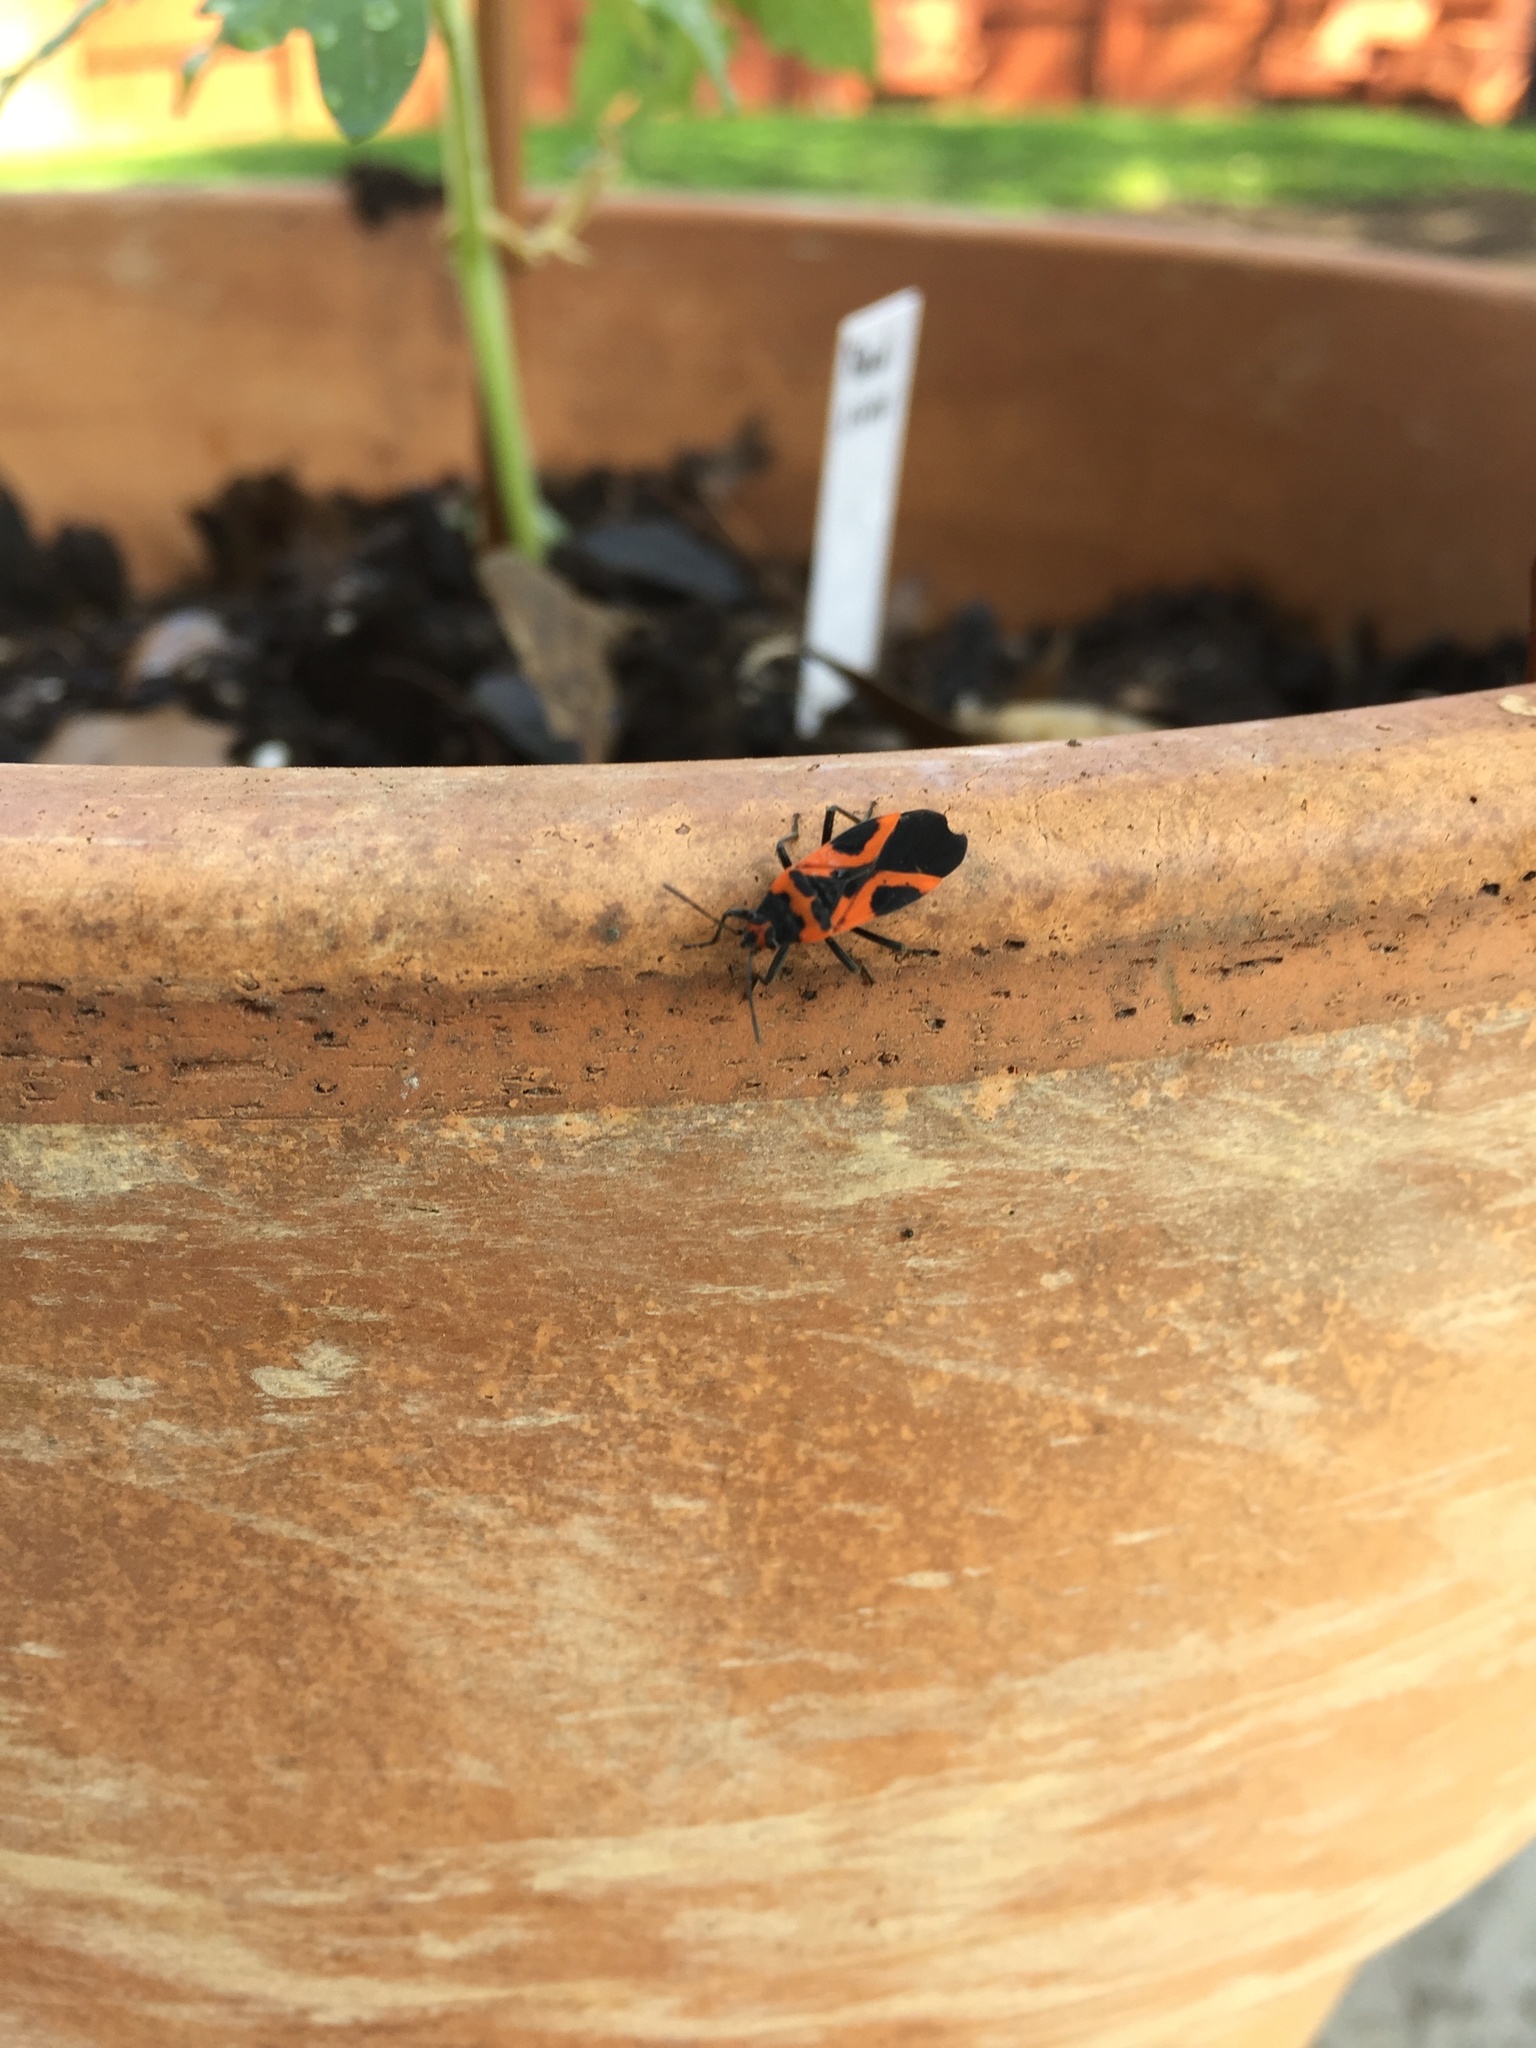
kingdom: Animalia
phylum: Arthropoda
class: Insecta
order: Hemiptera
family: Lygaeidae
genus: Lygaeus
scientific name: Lygaeus turcicus
